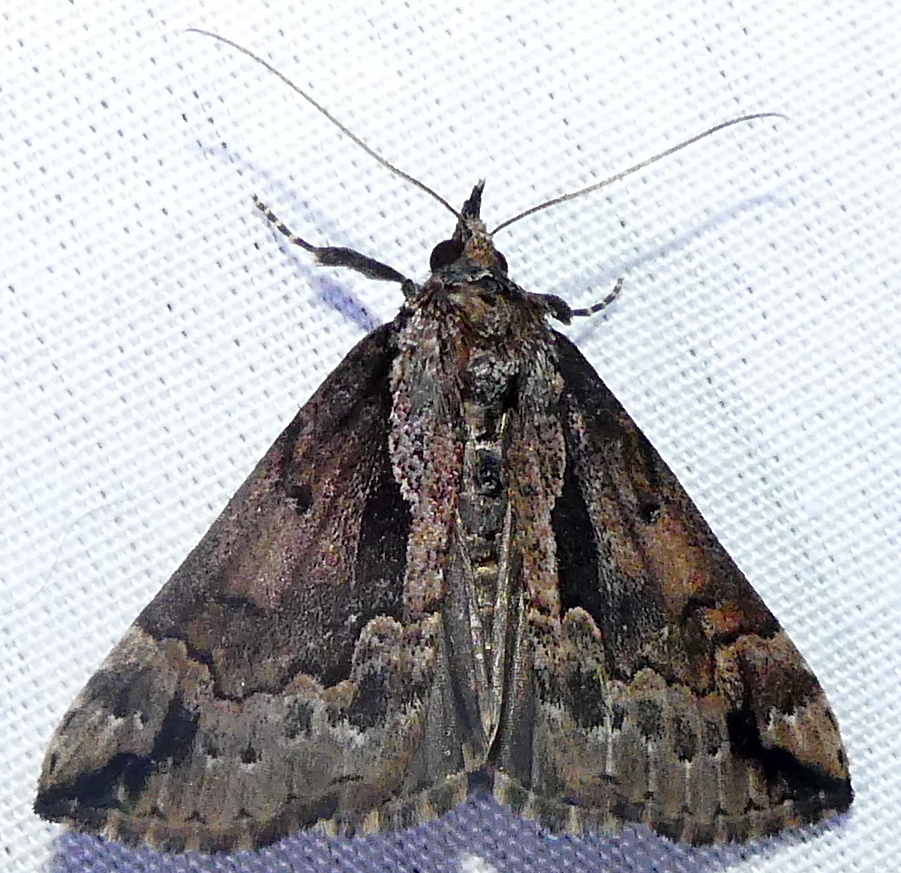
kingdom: Animalia
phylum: Arthropoda
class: Insecta
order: Lepidoptera
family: Erebidae
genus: Hypena
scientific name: Hypena baltimoralis
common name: Baltimore snout
